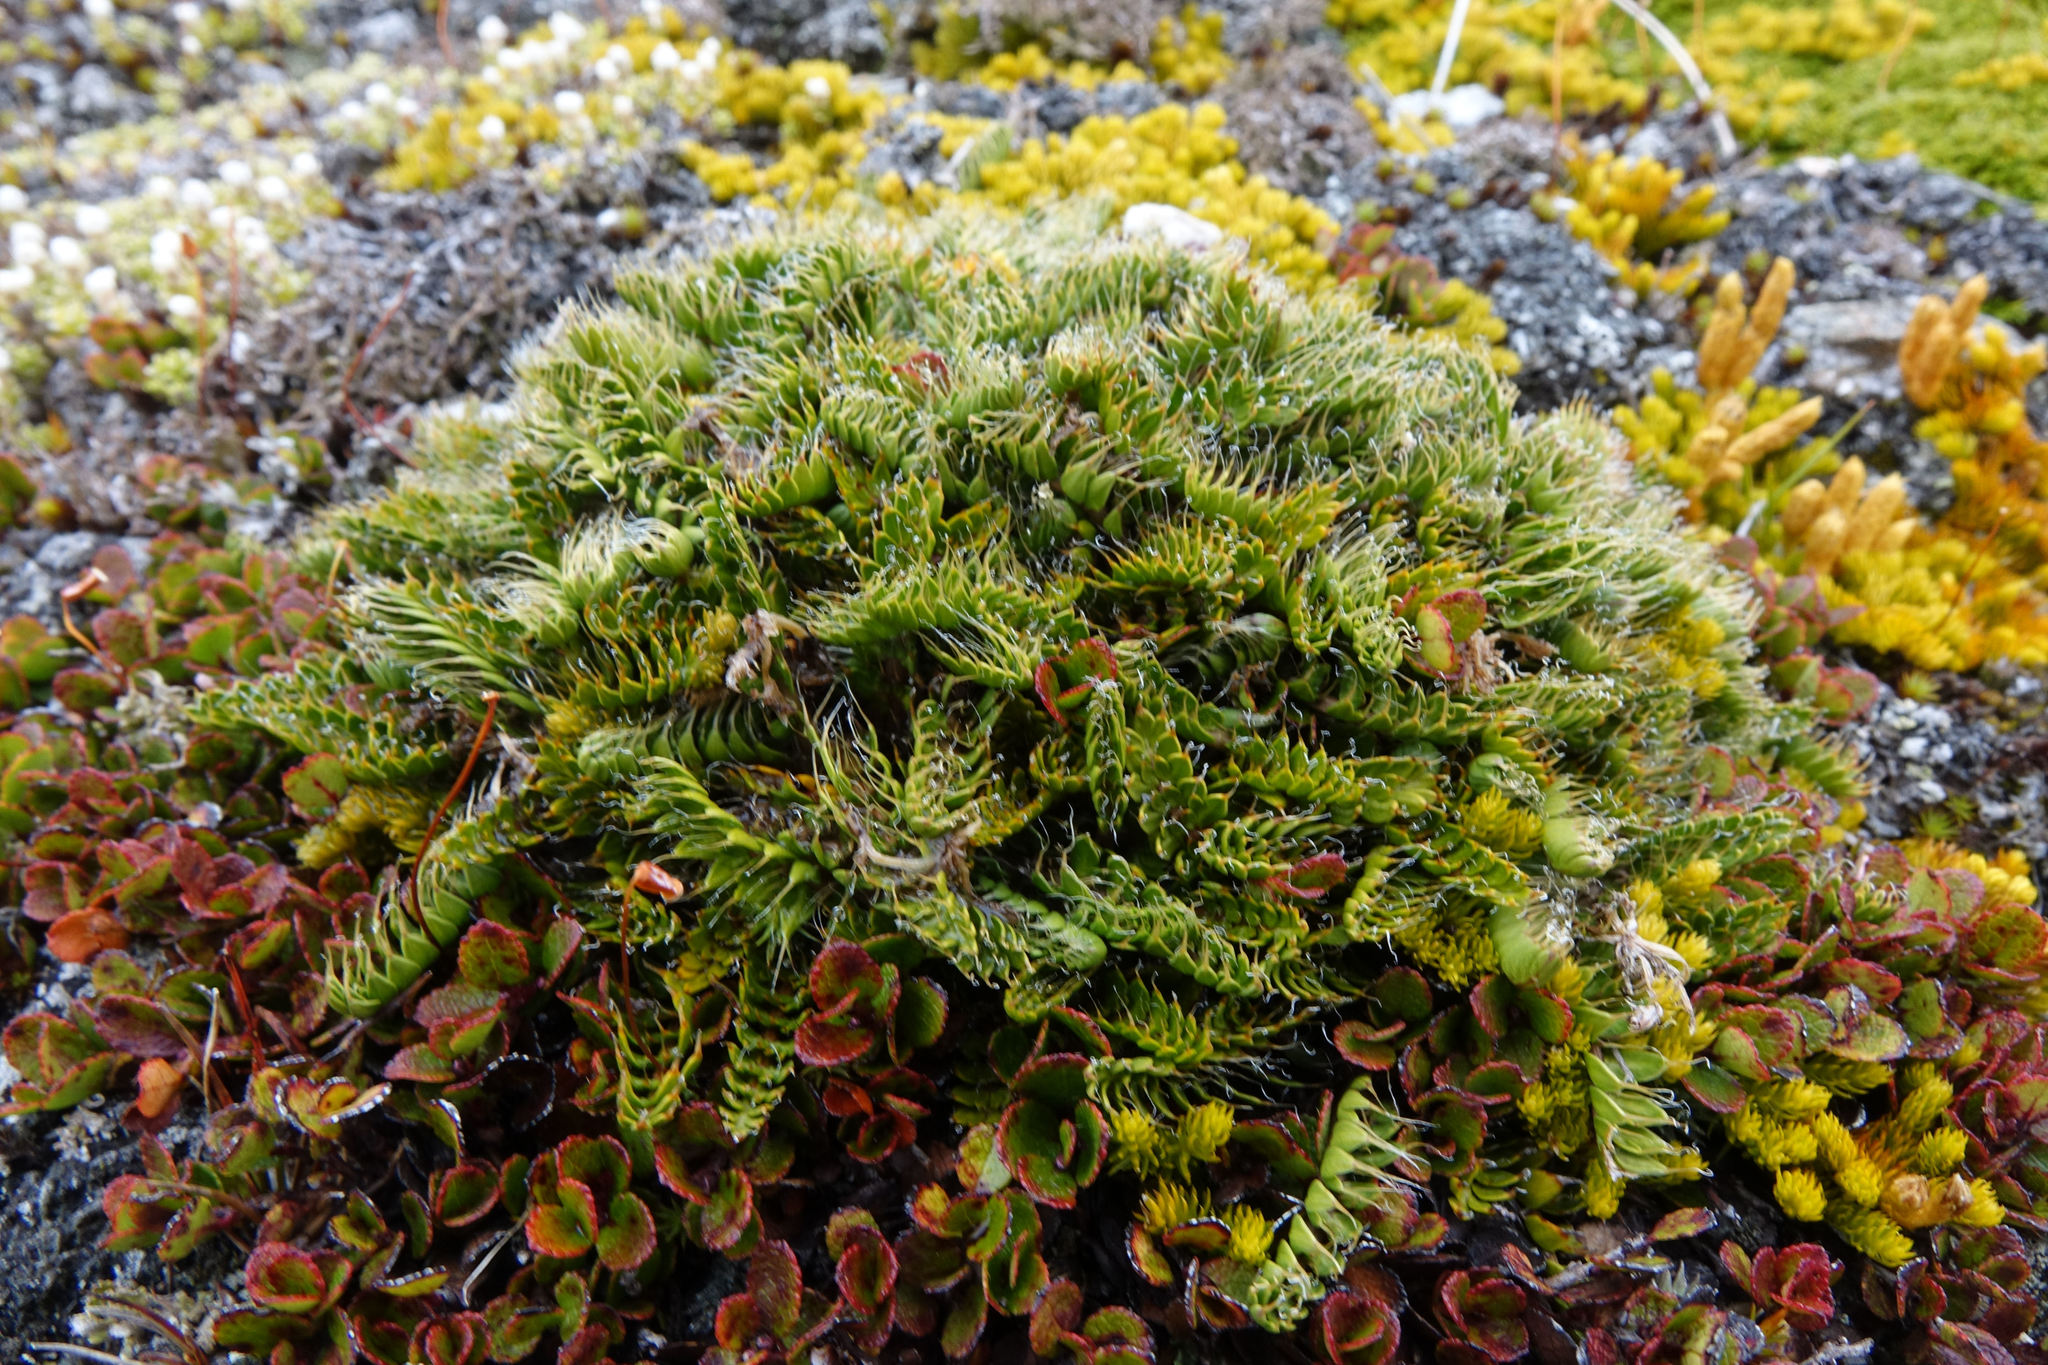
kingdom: Plantae
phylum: Tracheophyta
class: Magnoliopsida
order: Apiales
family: Apiaceae
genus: Anisotome
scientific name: Anisotome flexuosa
